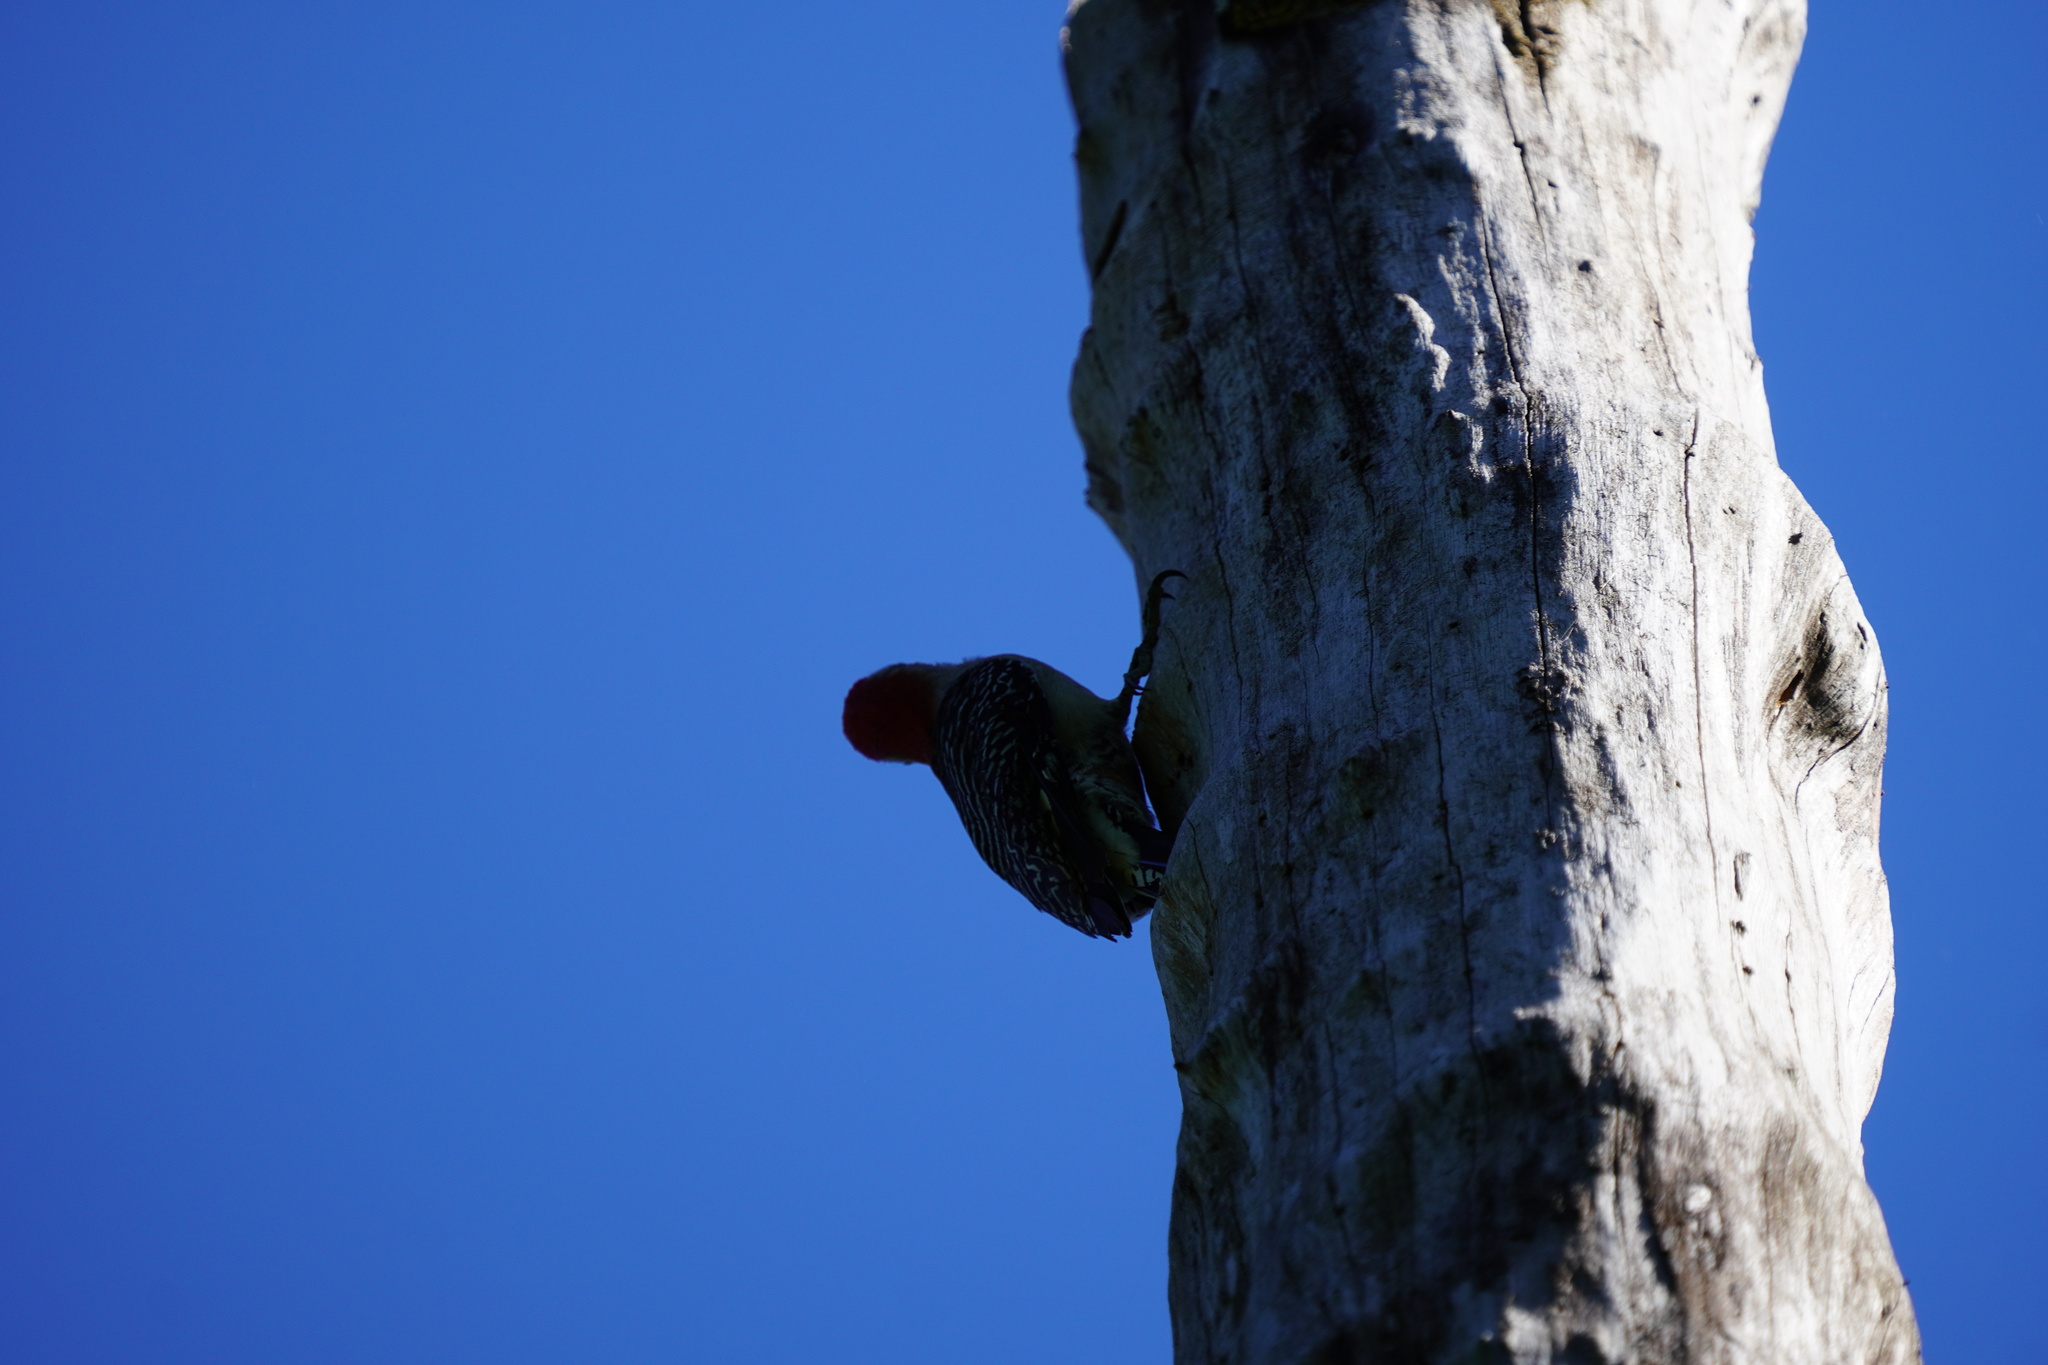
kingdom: Animalia
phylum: Chordata
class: Aves
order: Piciformes
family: Picidae
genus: Melanerpes
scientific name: Melanerpes carolinus
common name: Red-bellied woodpecker
